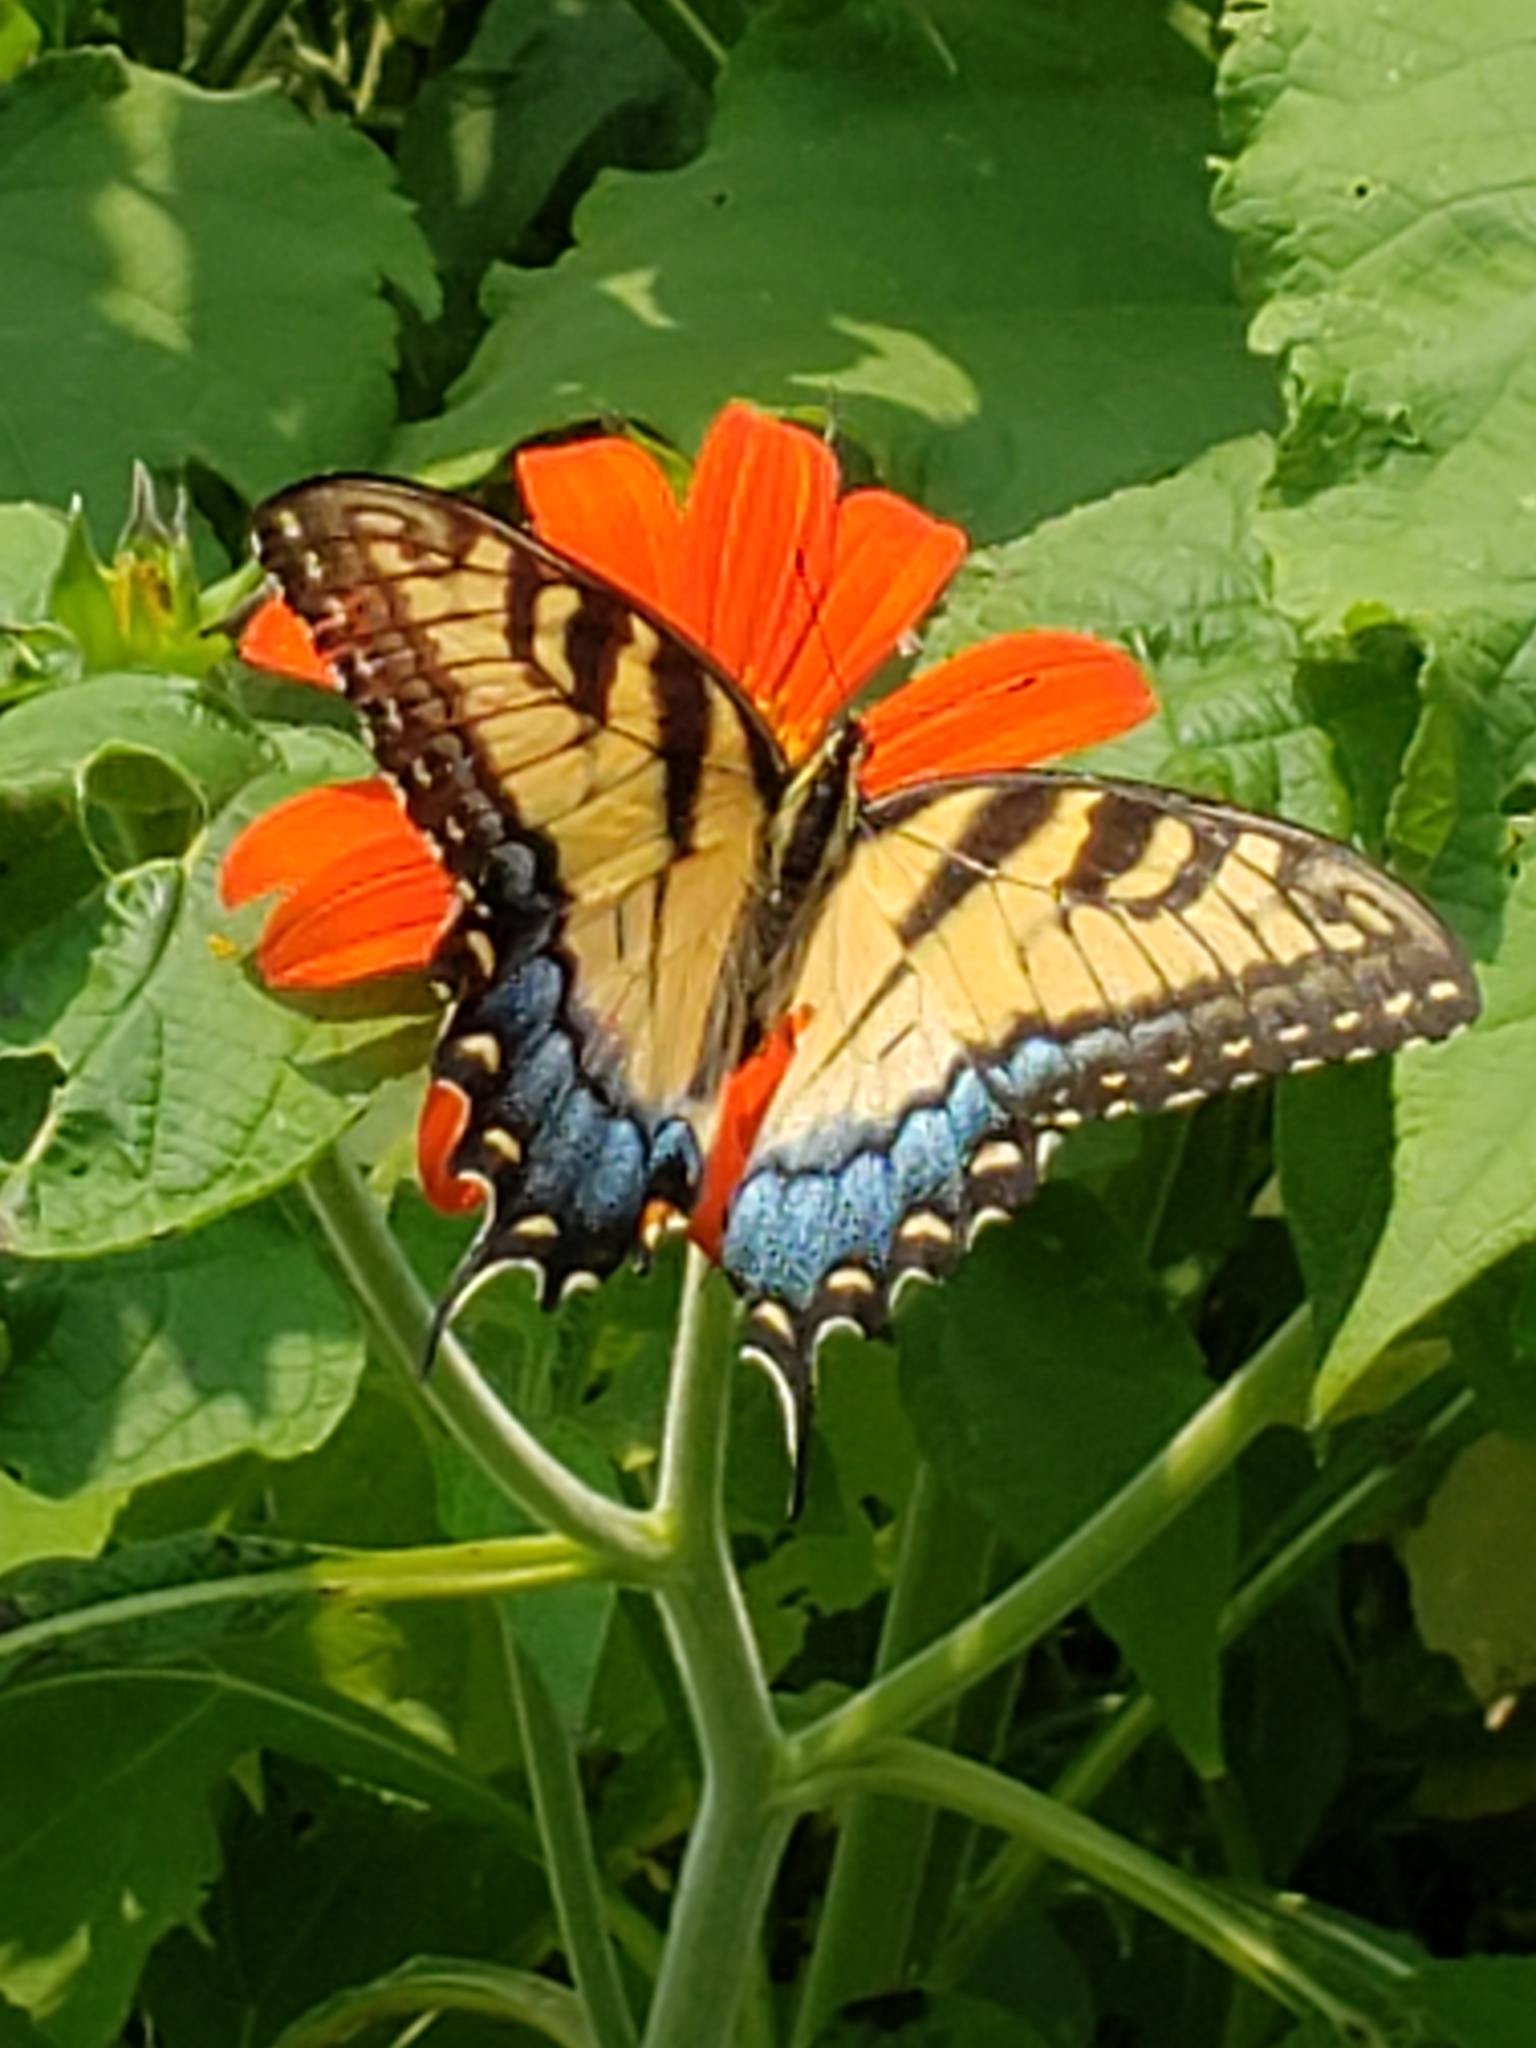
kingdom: Animalia
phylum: Arthropoda
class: Insecta
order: Lepidoptera
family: Papilionidae
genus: Papilio
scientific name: Papilio glaucus
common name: Tiger swallowtail
